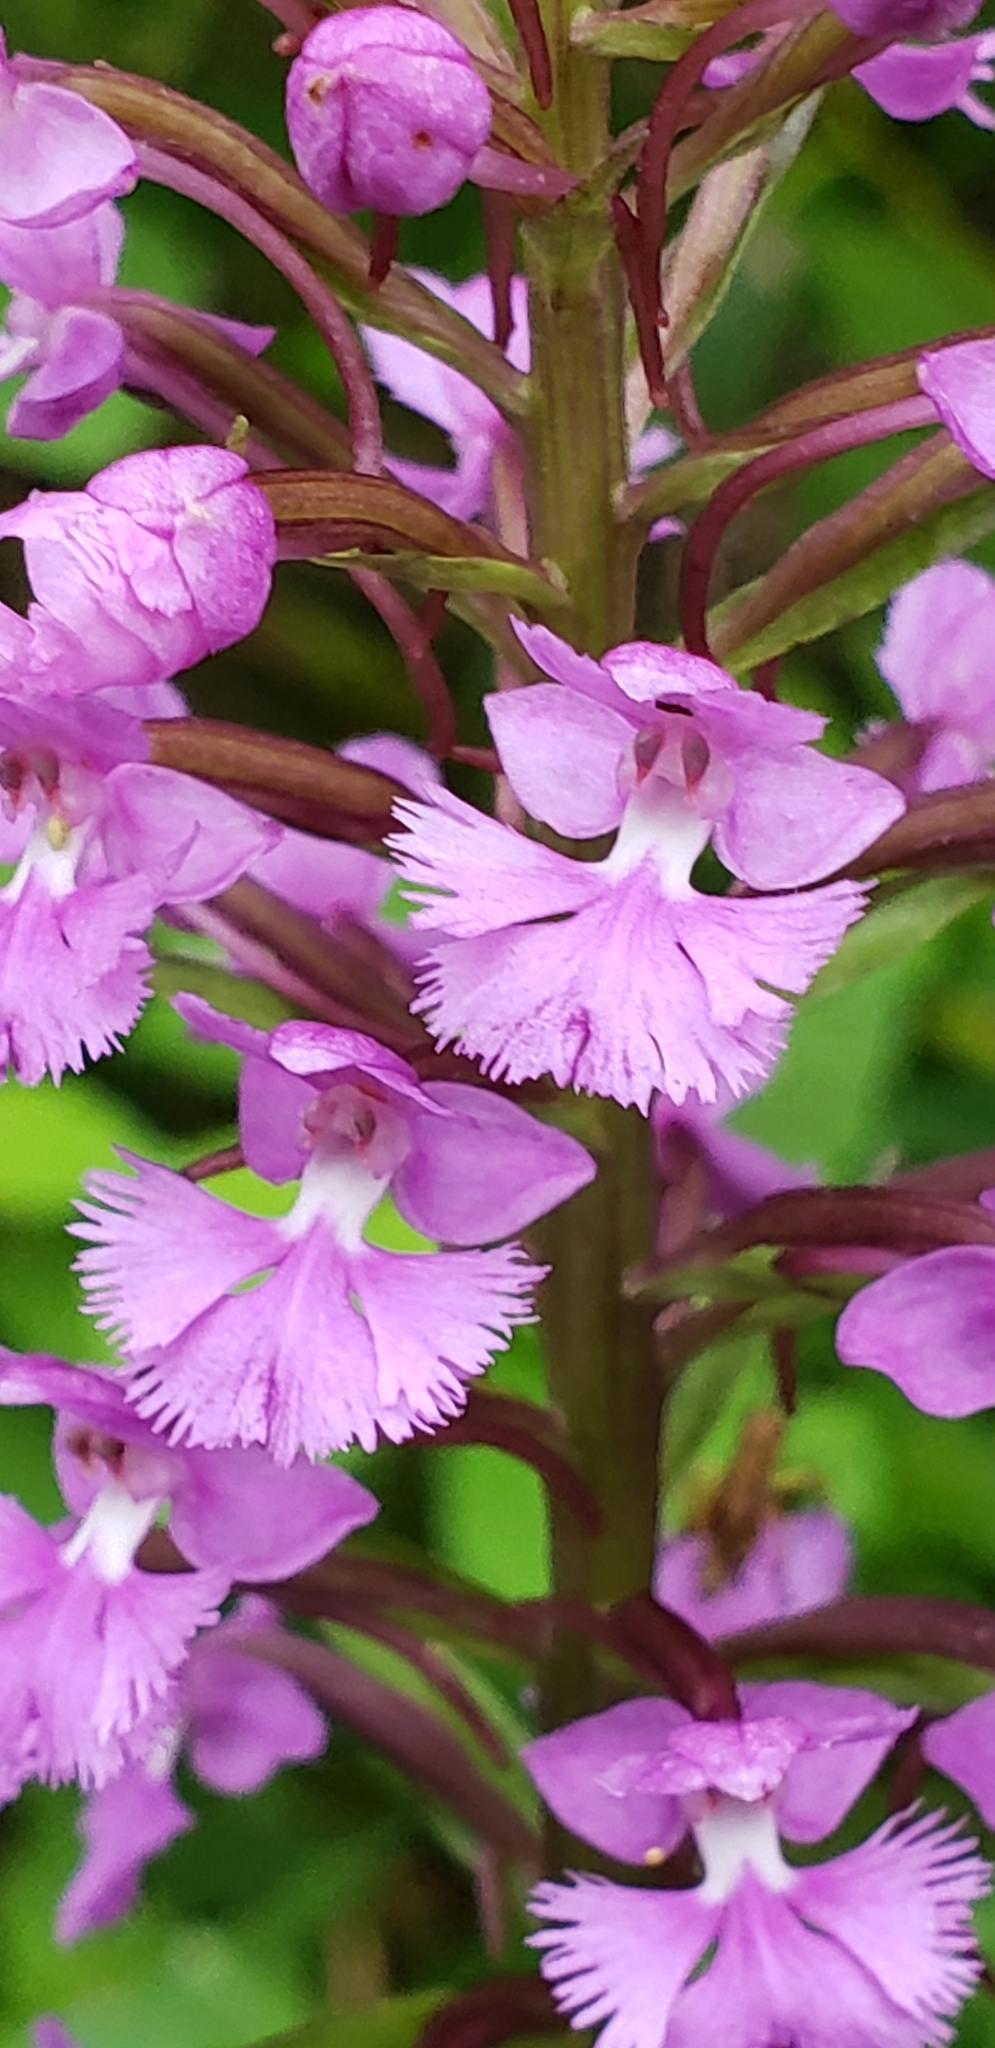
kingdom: Plantae
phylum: Tracheophyta
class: Liliopsida
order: Asparagales
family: Orchidaceae
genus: Platanthera
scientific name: Platanthera psycodes
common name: Lesser purple fringed orchid
